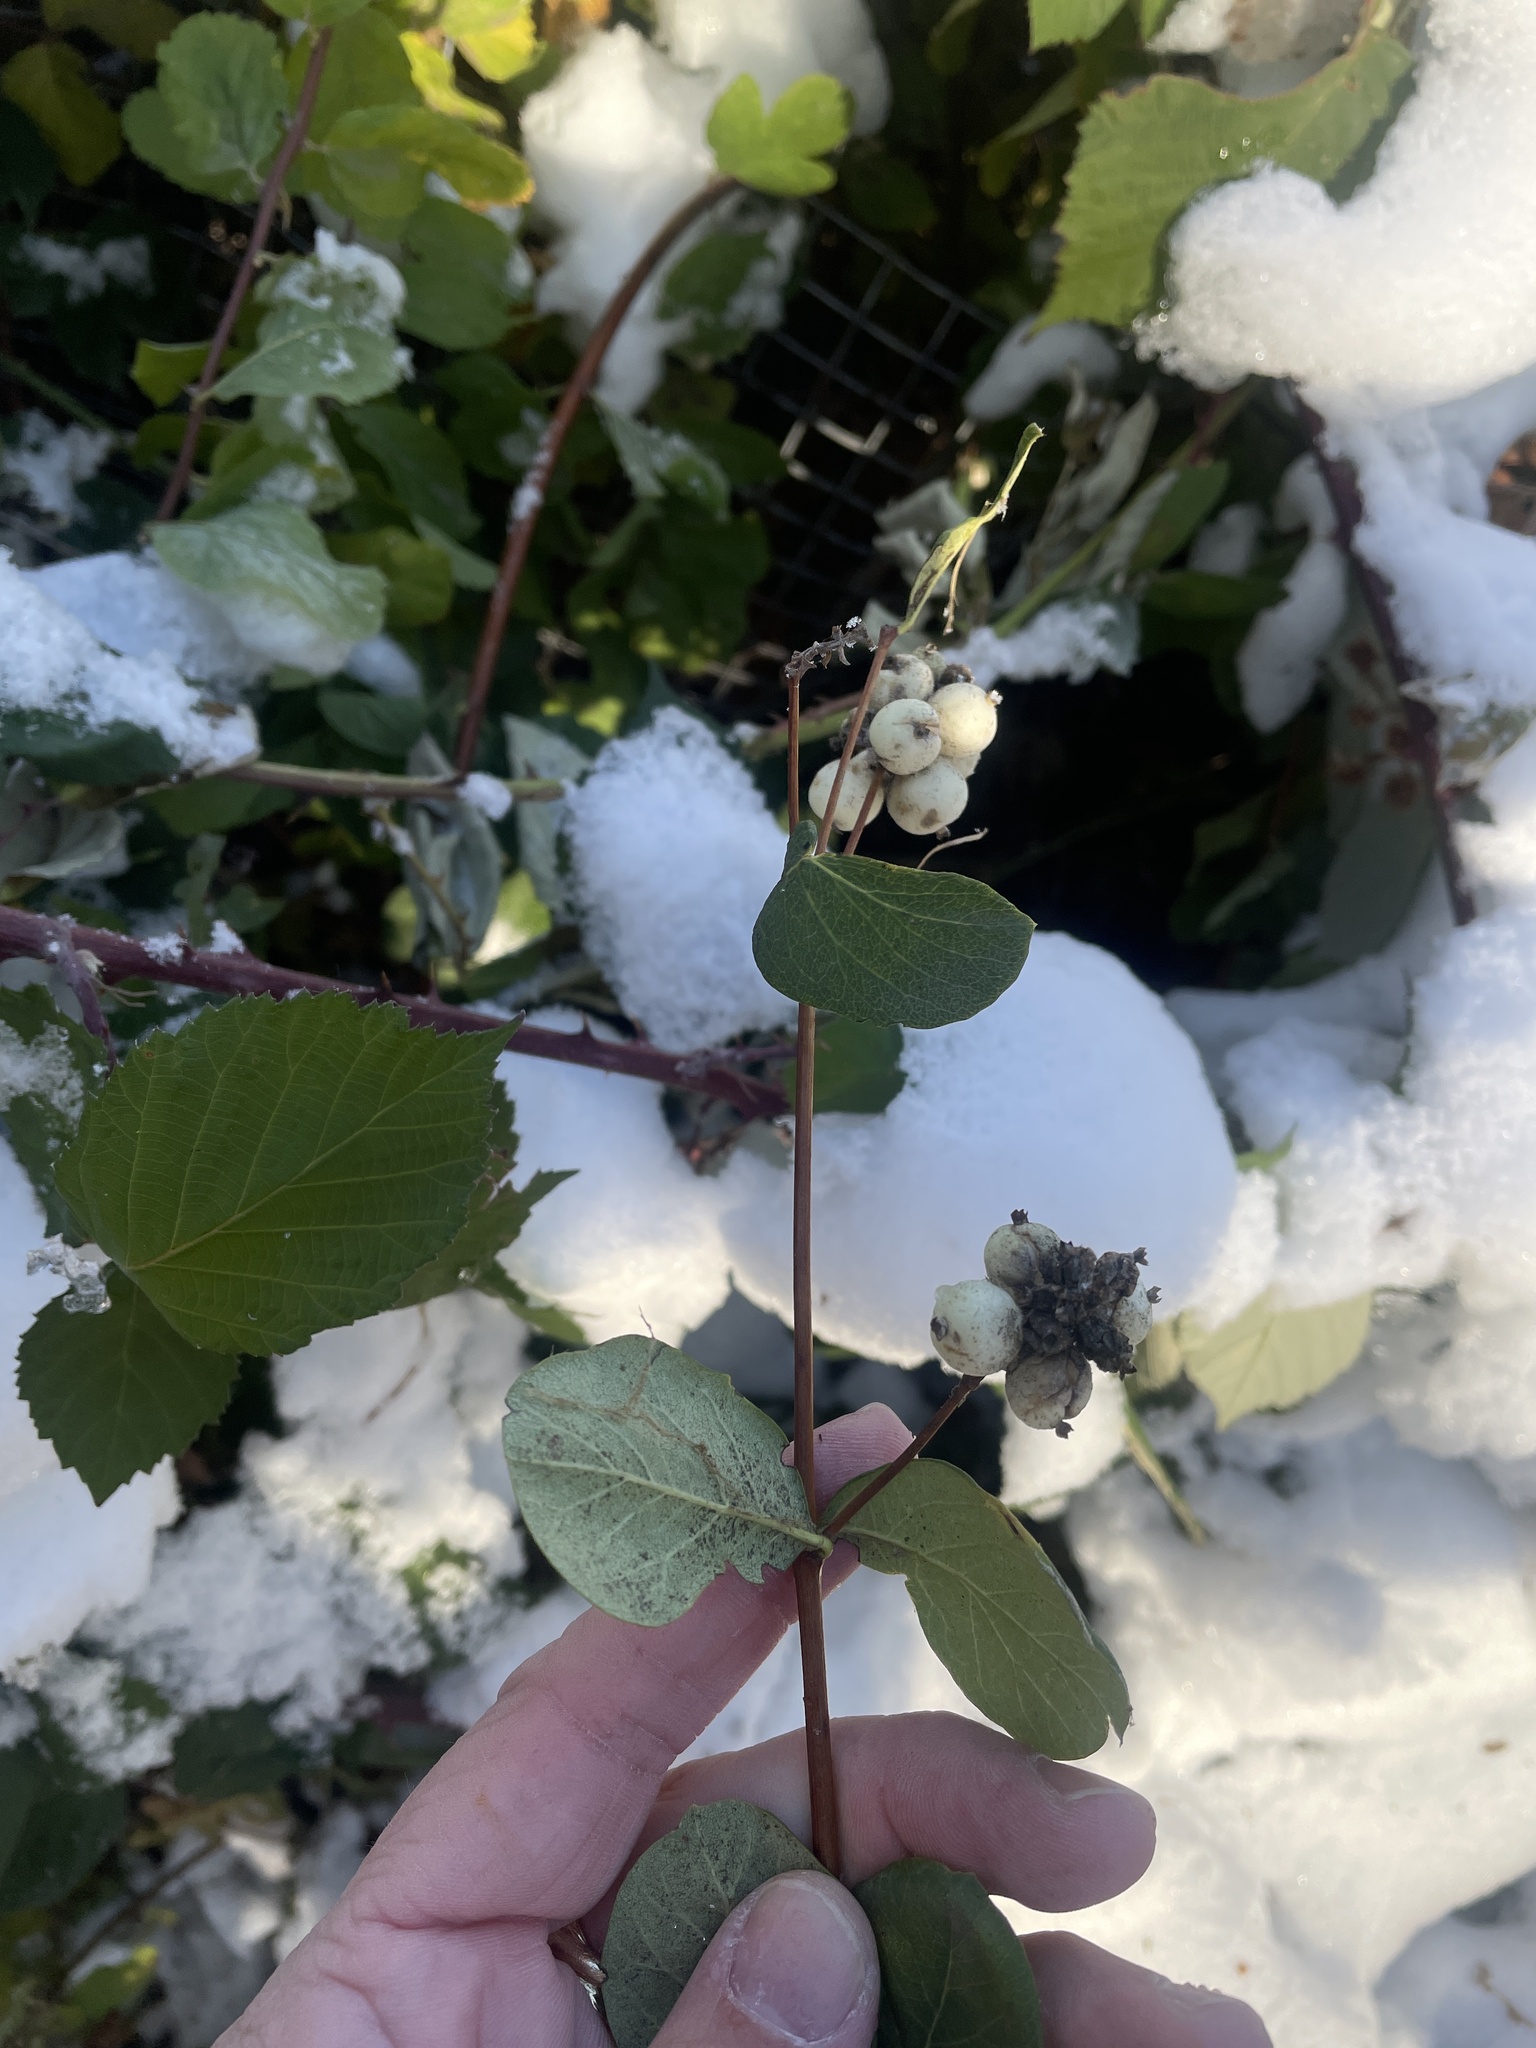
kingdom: Plantae
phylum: Tracheophyta
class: Magnoliopsida
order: Dipsacales
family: Caprifoliaceae
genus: Symphoricarpos
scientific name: Symphoricarpos albus
